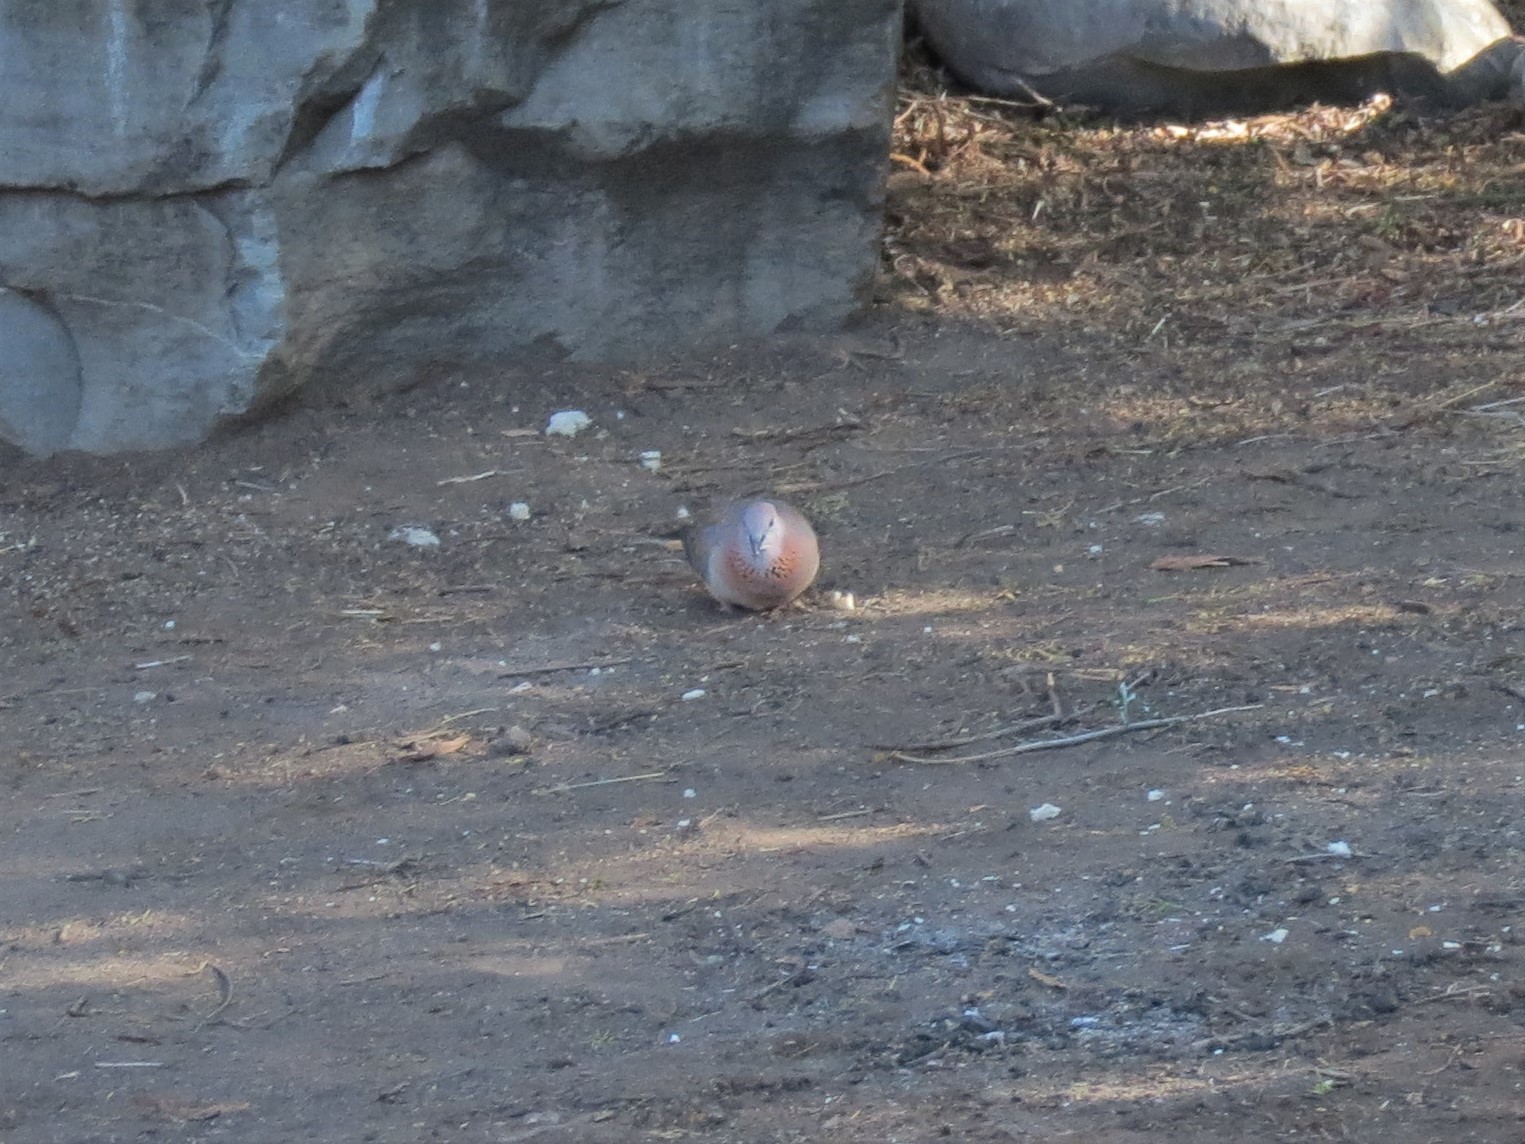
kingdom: Animalia
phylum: Chordata
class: Aves
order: Columbiformes
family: Columbidae
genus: Spilopelia
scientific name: Spilopelia senegalensis
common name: Laughing dove
